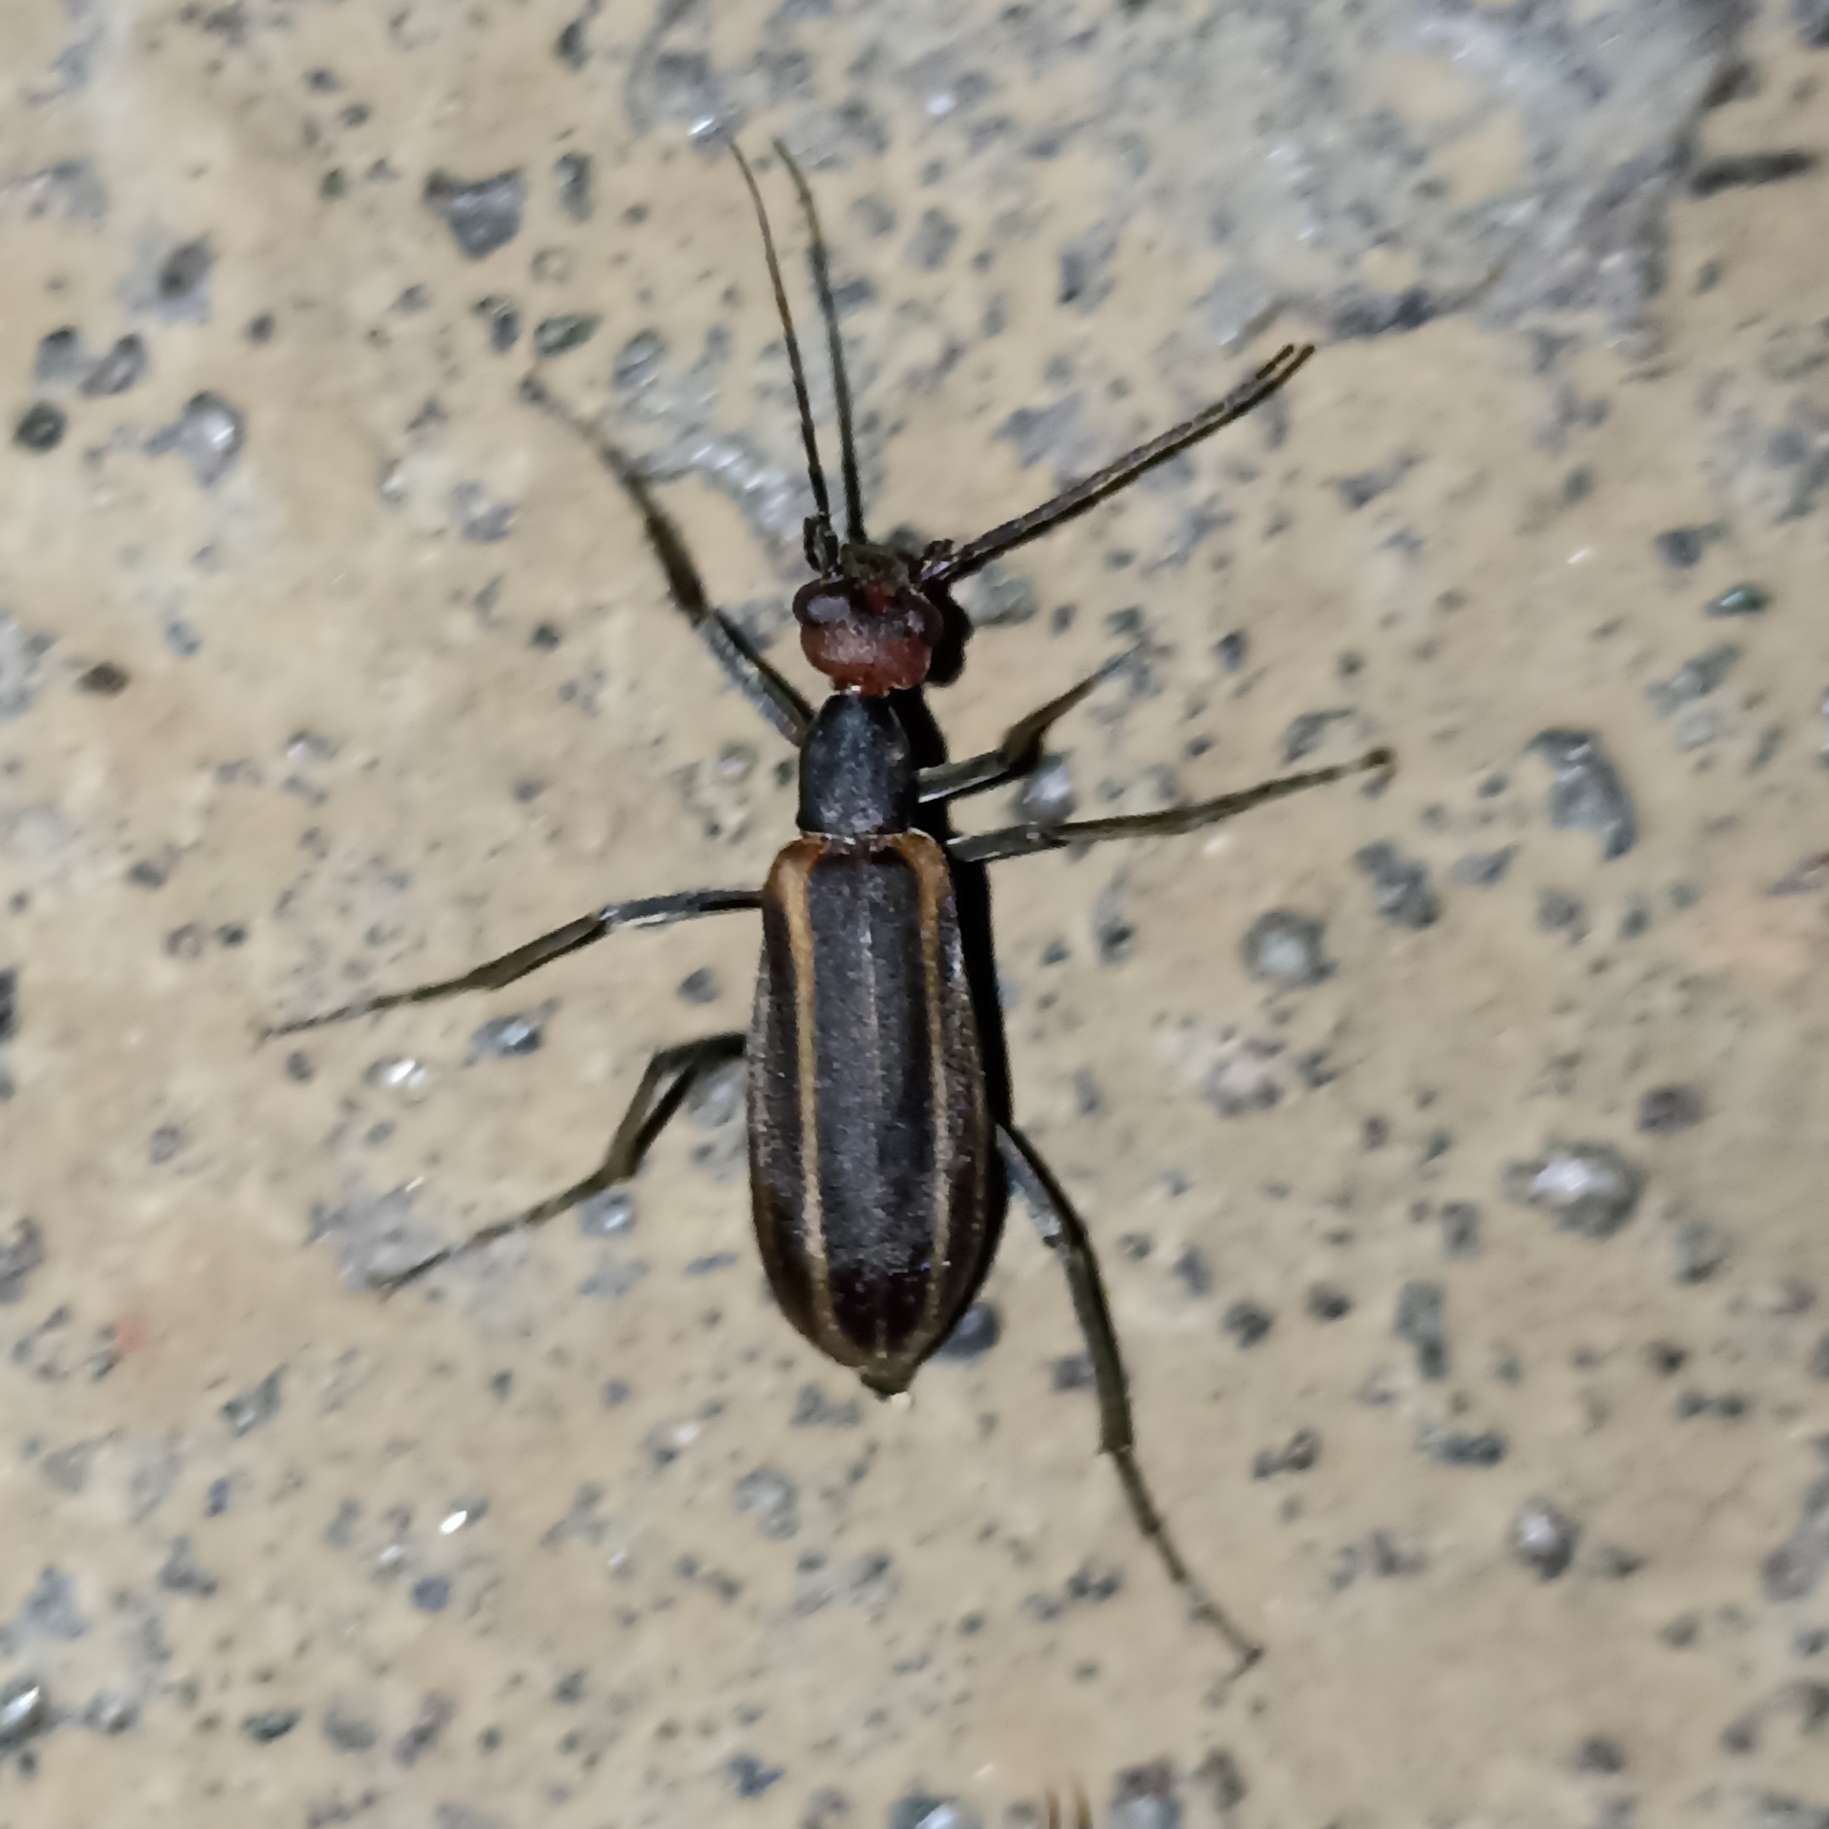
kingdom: Animalia
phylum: Arthropoda
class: Insecta
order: Coleoptera
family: Meloidae
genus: Epicauta
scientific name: Epicauta
